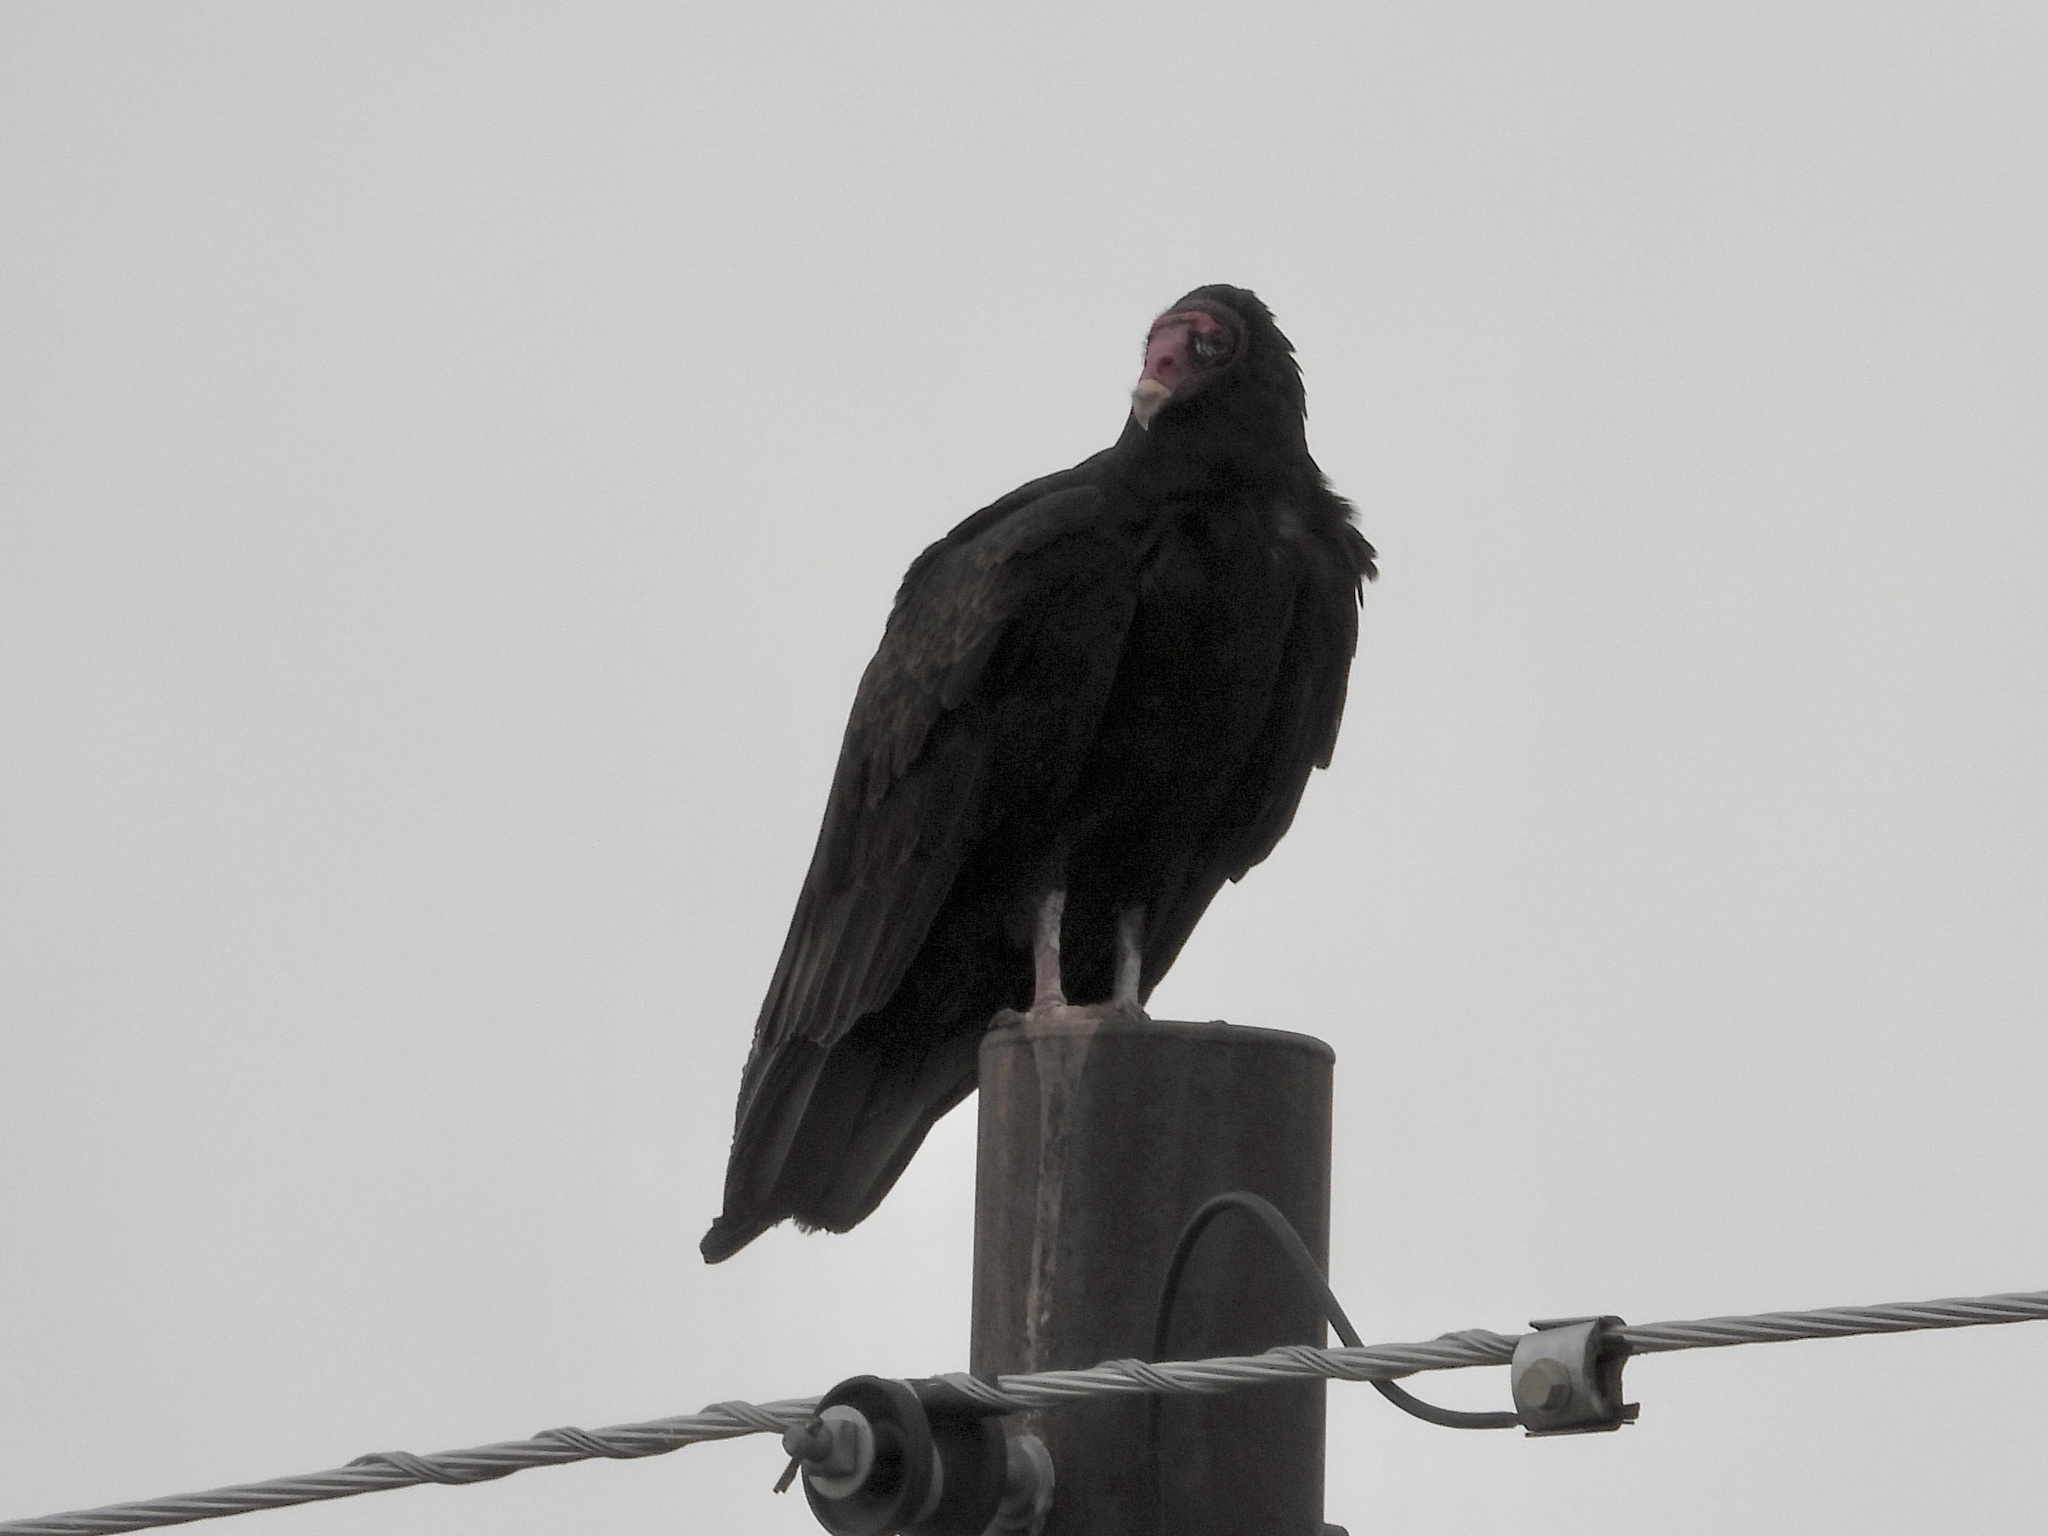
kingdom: Animalia
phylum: Chordata
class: Aves
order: Accipitriformes
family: Cathartidae
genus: Cathartes
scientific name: Cathartes aura
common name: Turkey vulture
